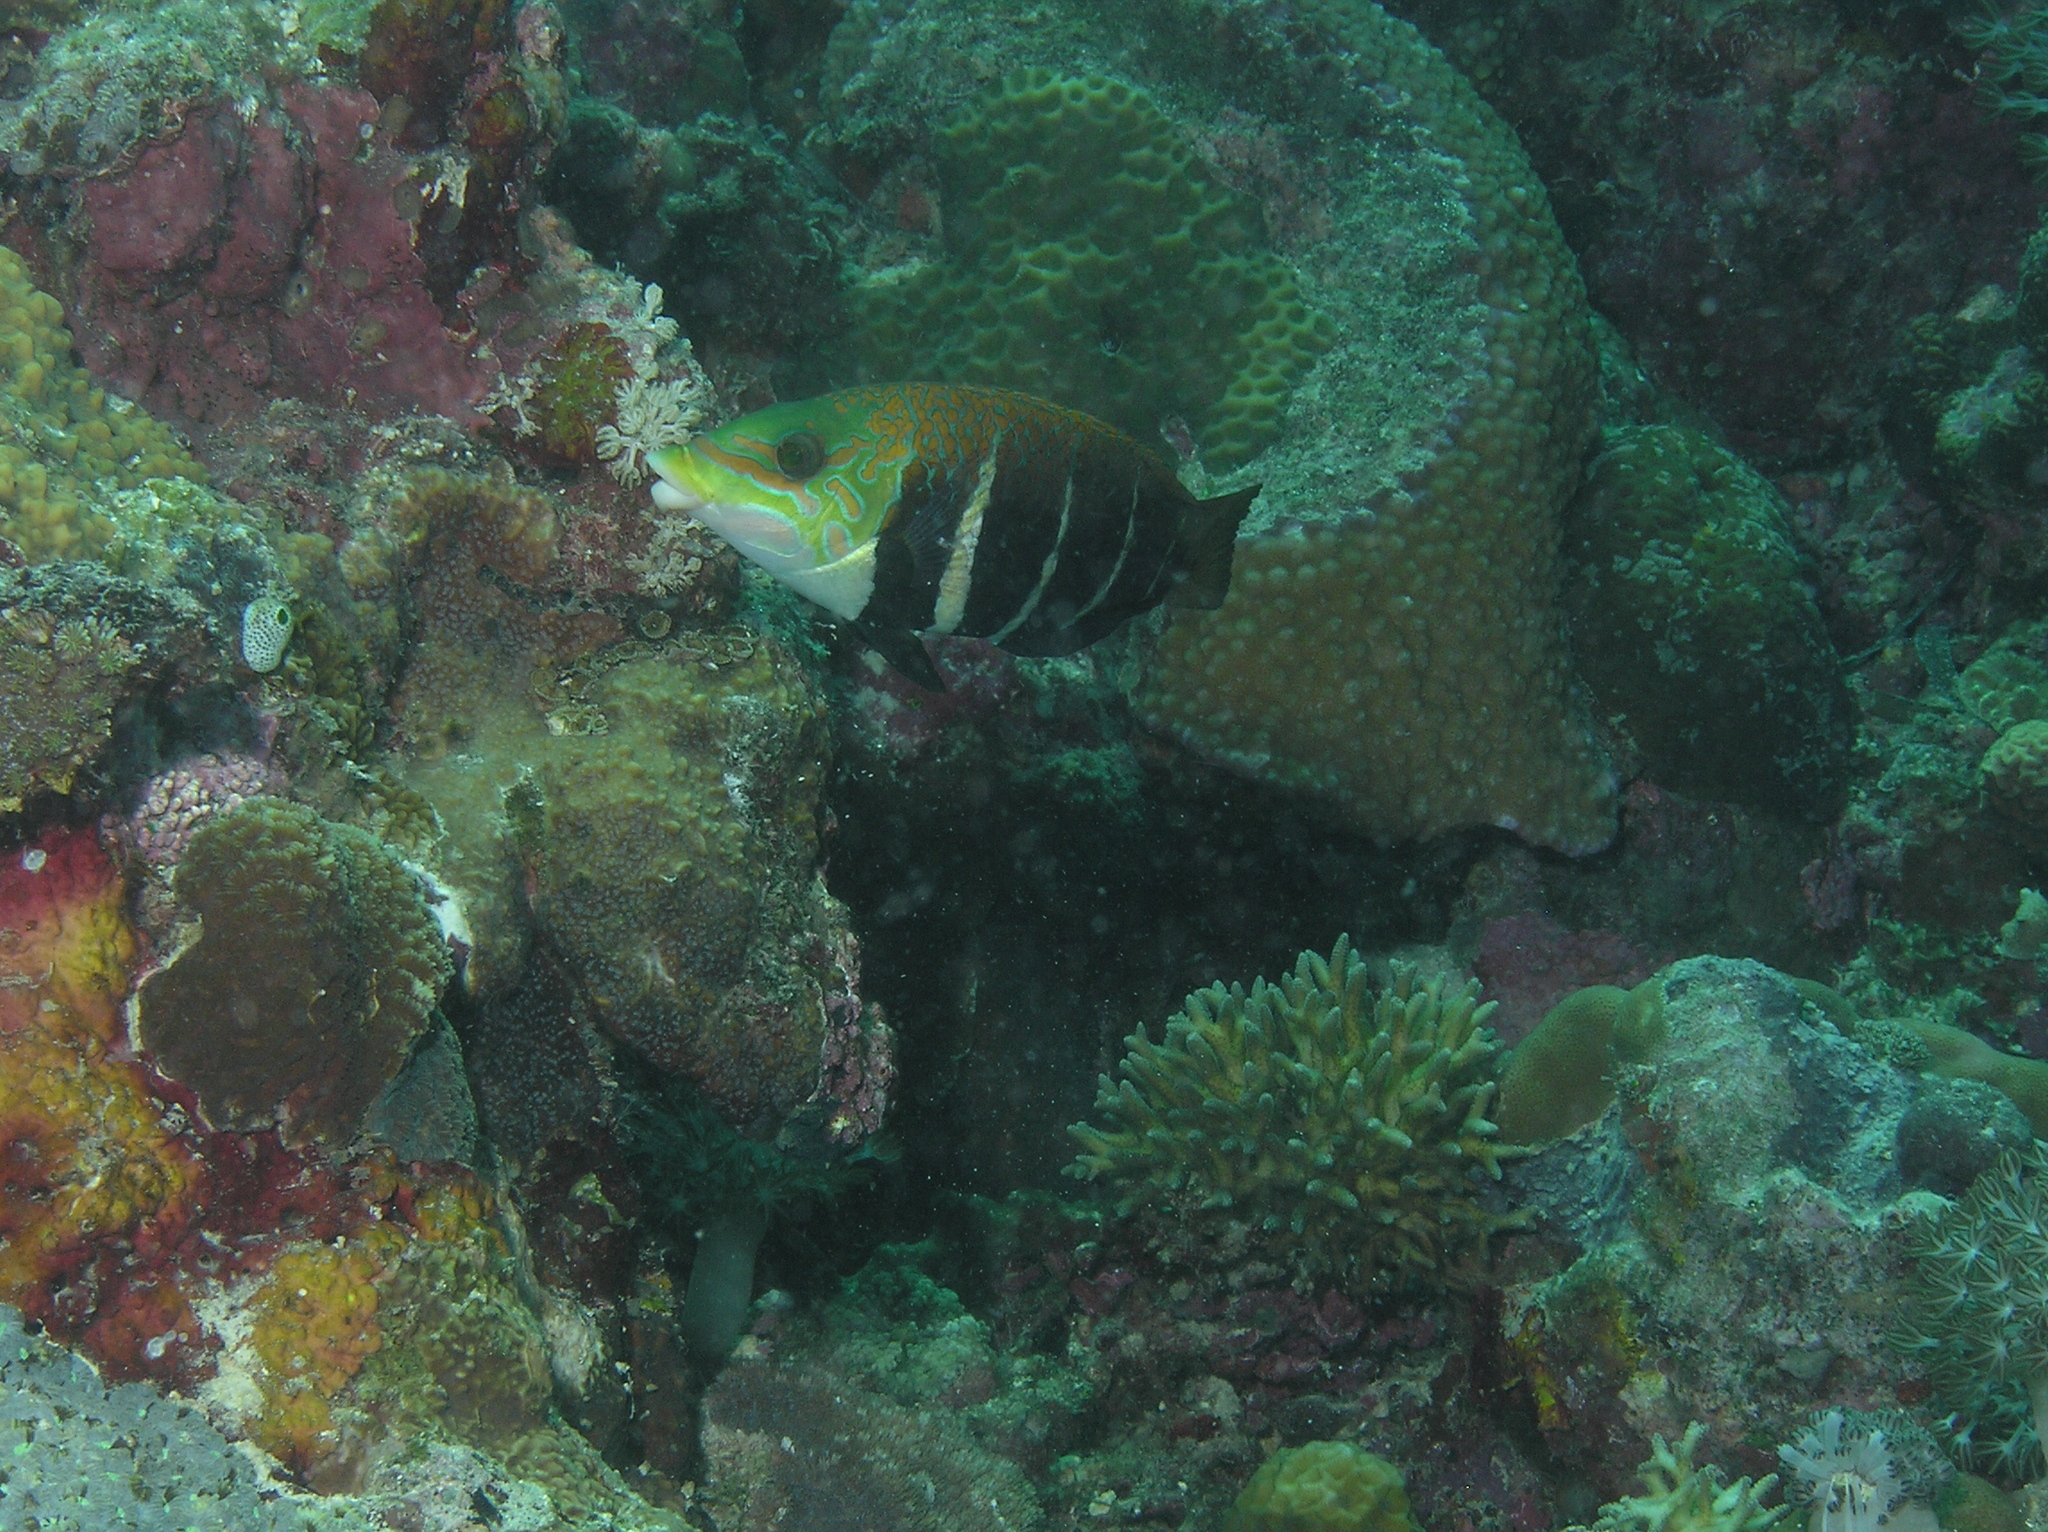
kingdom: Animalia
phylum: Chordata
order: Perciformes
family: Labridae
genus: Hemigymnus
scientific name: Hemigymnus fasciatus
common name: Barred thicklip
